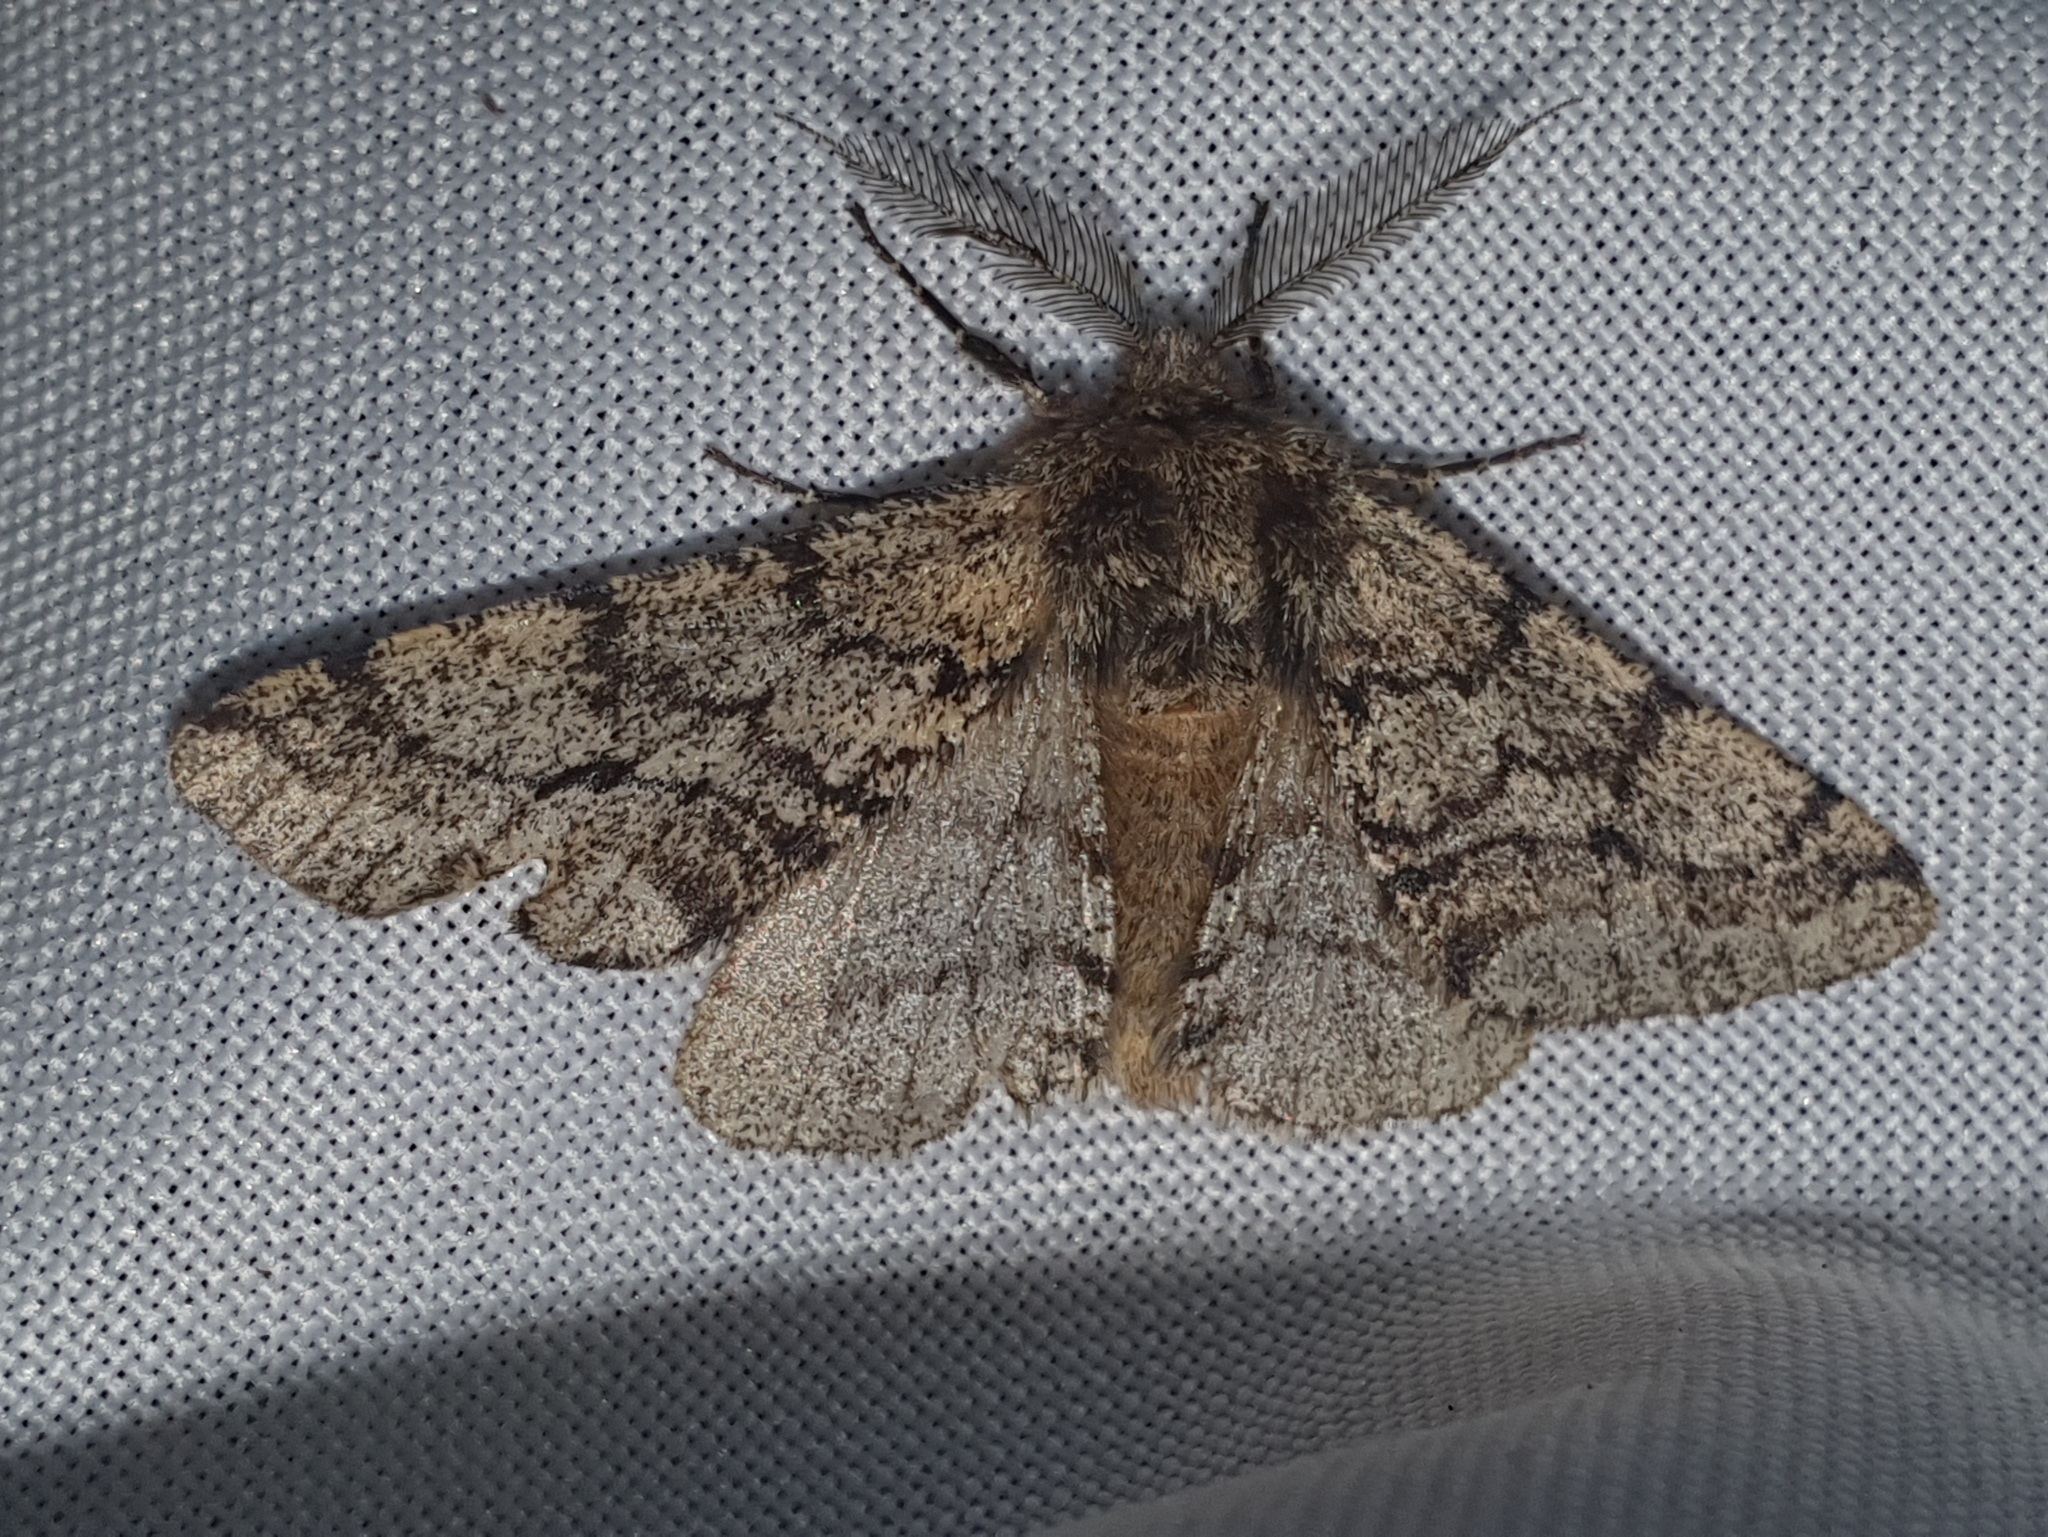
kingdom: Animalia
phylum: Arthropoda
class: Insecta
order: Lepidoptera
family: Geometridae
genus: Lycia
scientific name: Lycia hirtaria
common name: Brindled beauty
